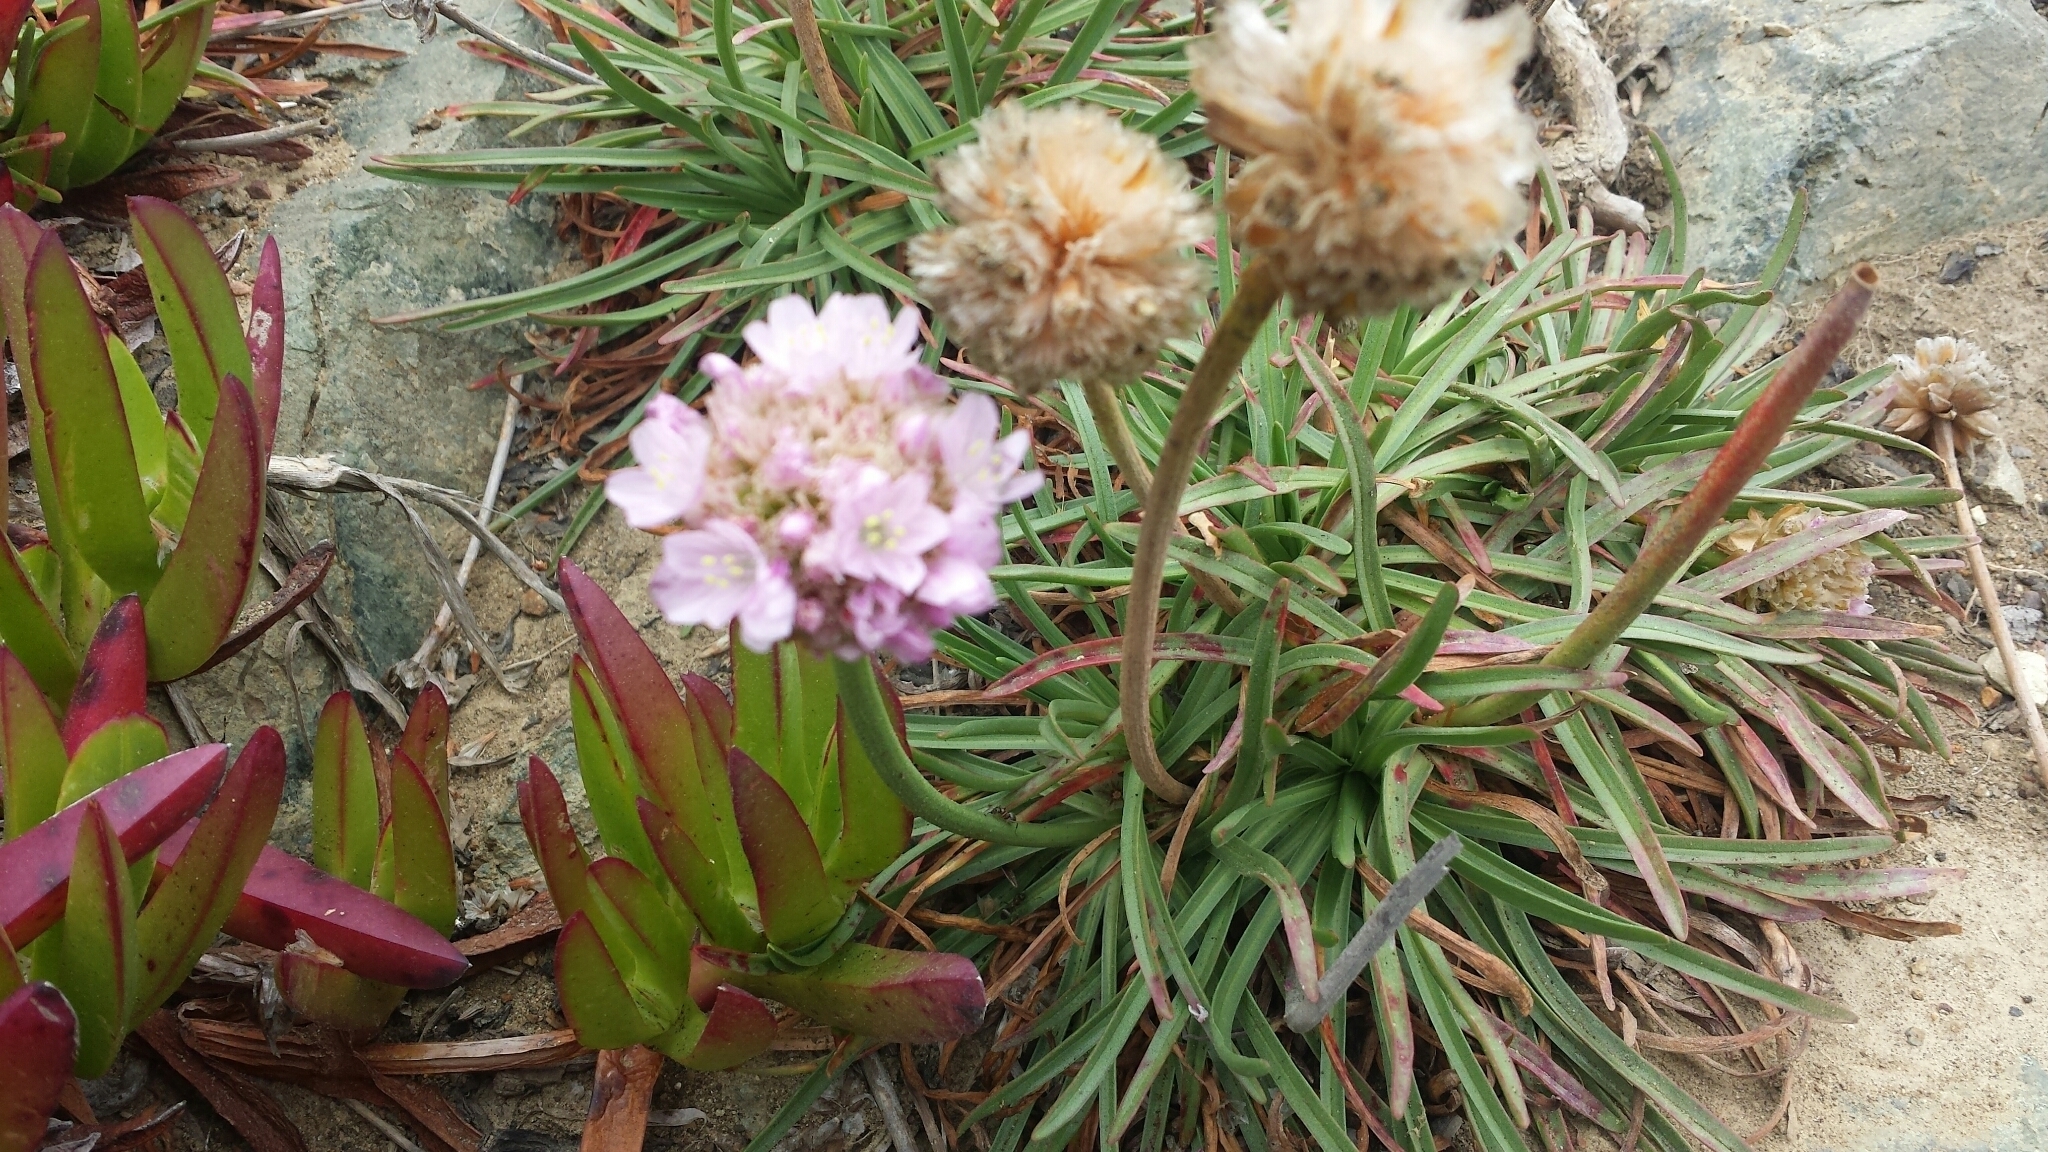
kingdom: Plantae
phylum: Tracheophyta
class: Magnoliopsida
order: Caryophyllales
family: Plumbaginaceae
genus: Armeria
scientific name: Armeria maritima
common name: Thrift
